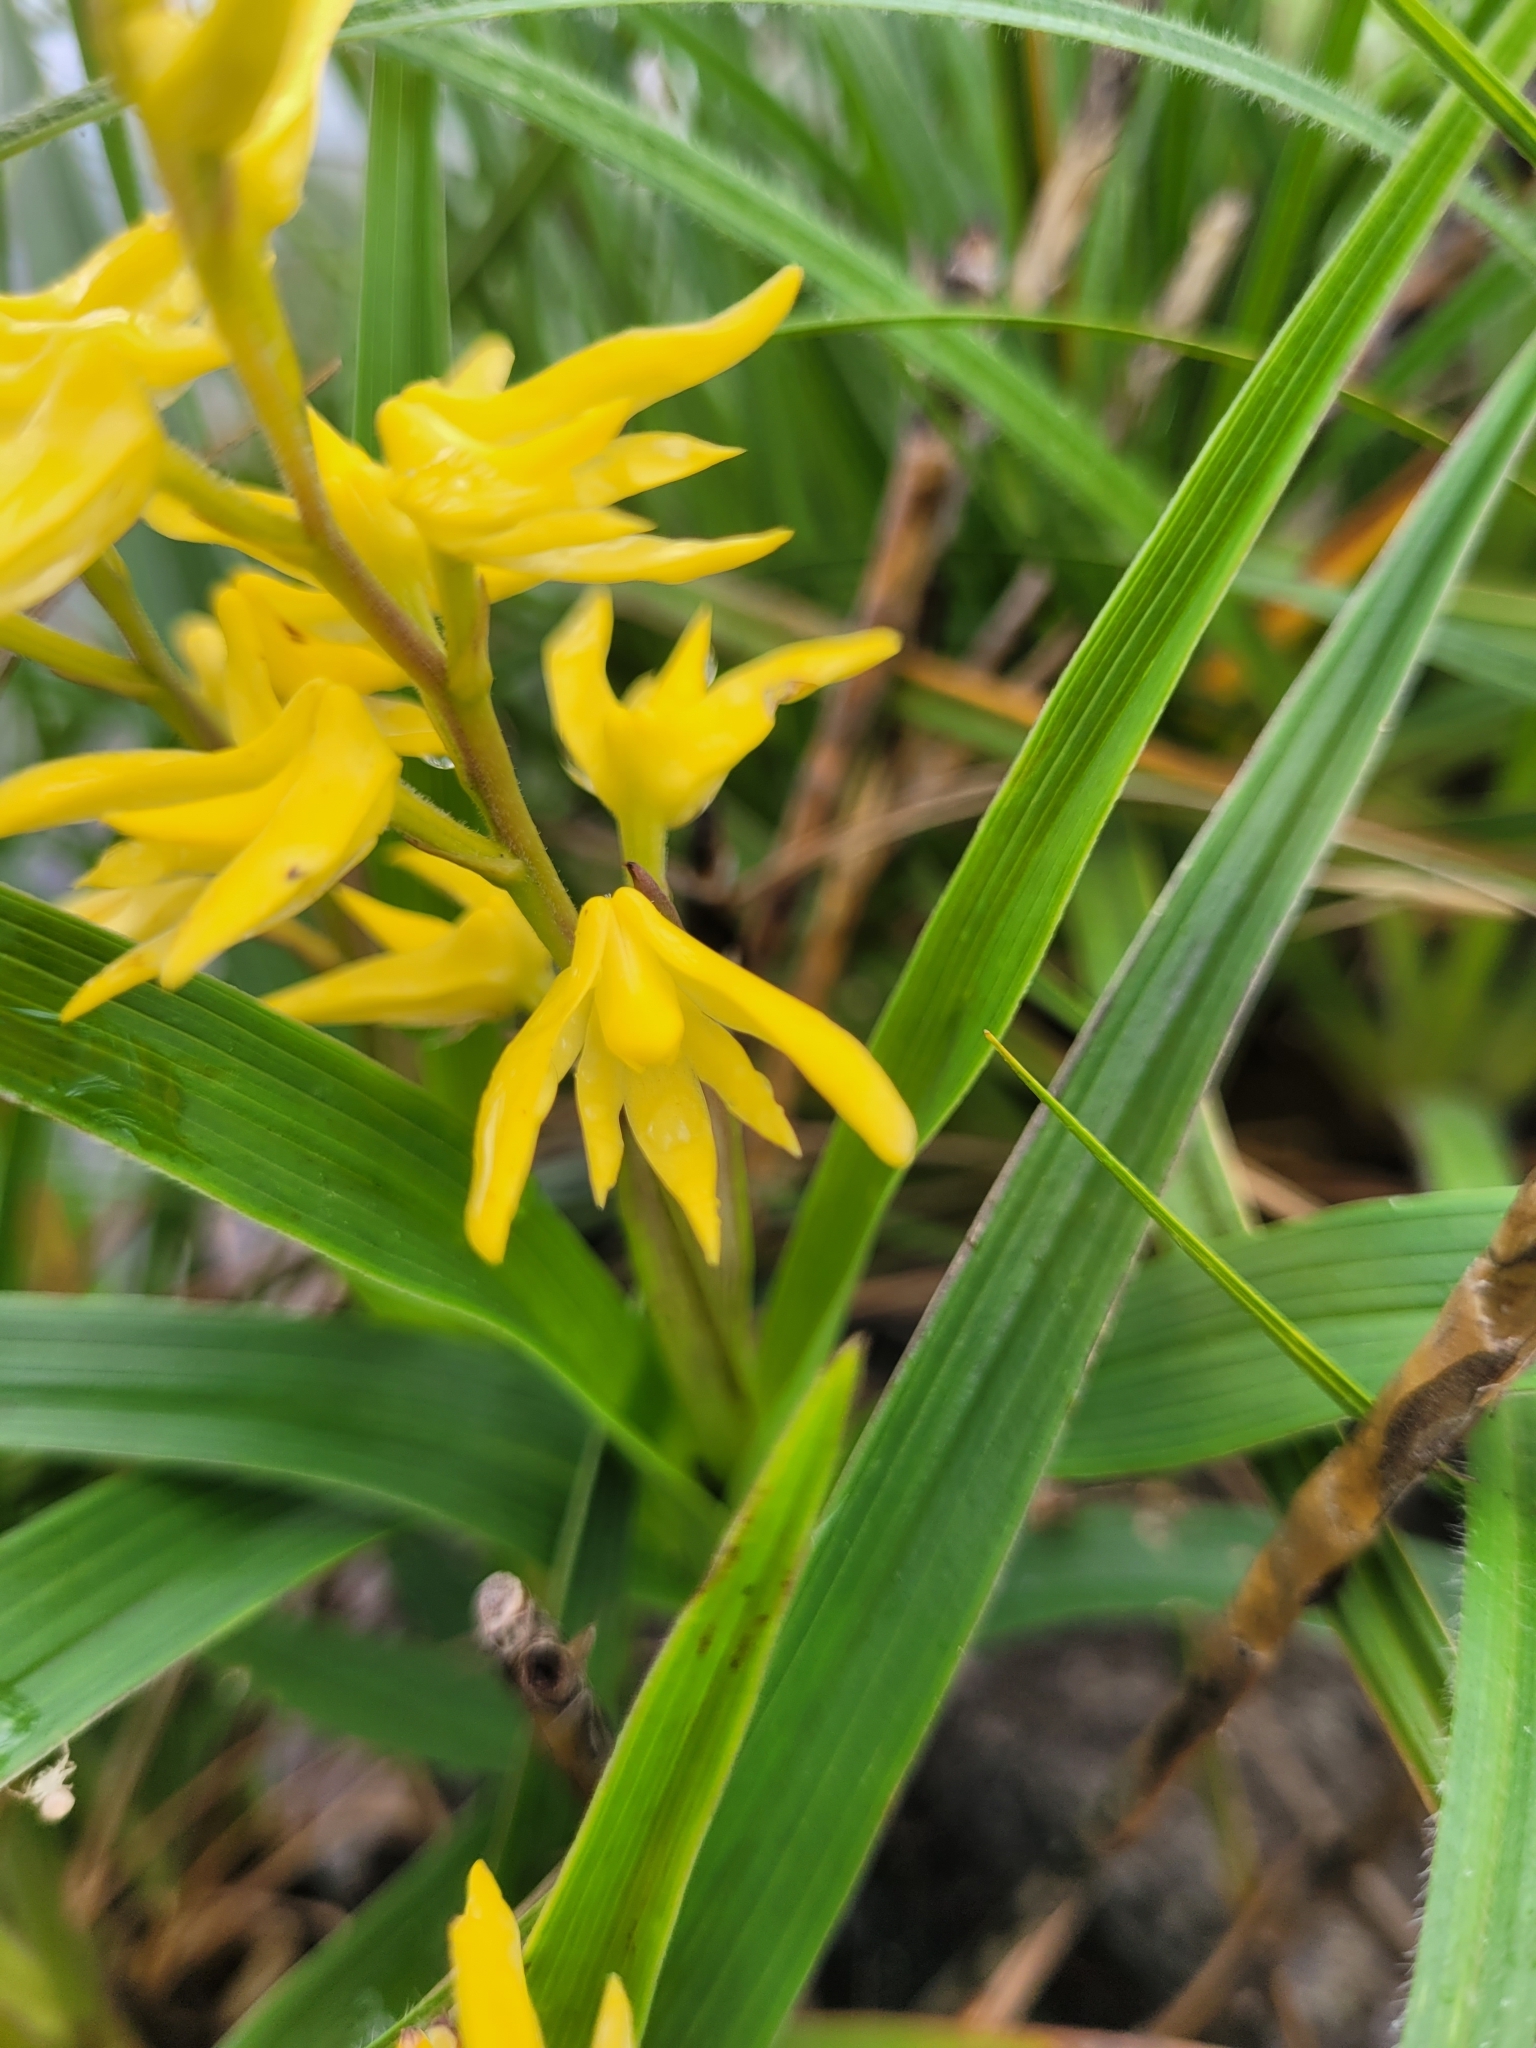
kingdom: Plantae
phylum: Tracheophyta
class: Liliopsida
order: Asparagales
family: Orchidaceae
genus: Polystachya
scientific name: Polystachya microbambusa
